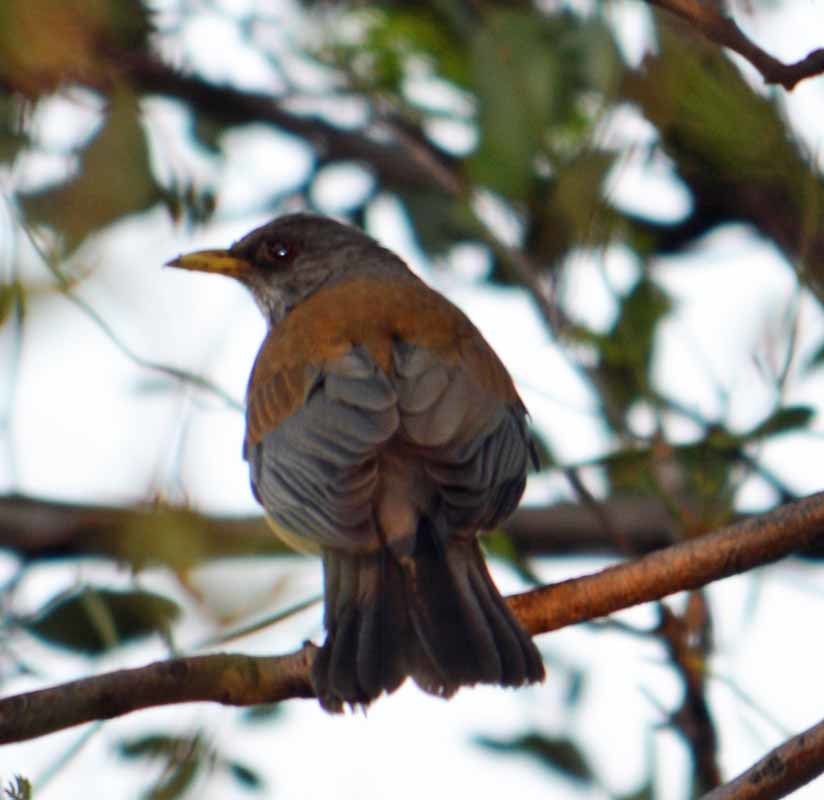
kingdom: Animalia
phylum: Chordata
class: Aves
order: Passeriformes
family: Turdidae
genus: Turdus
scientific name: Turdus rufopalliatus
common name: Rufous-backed robin
